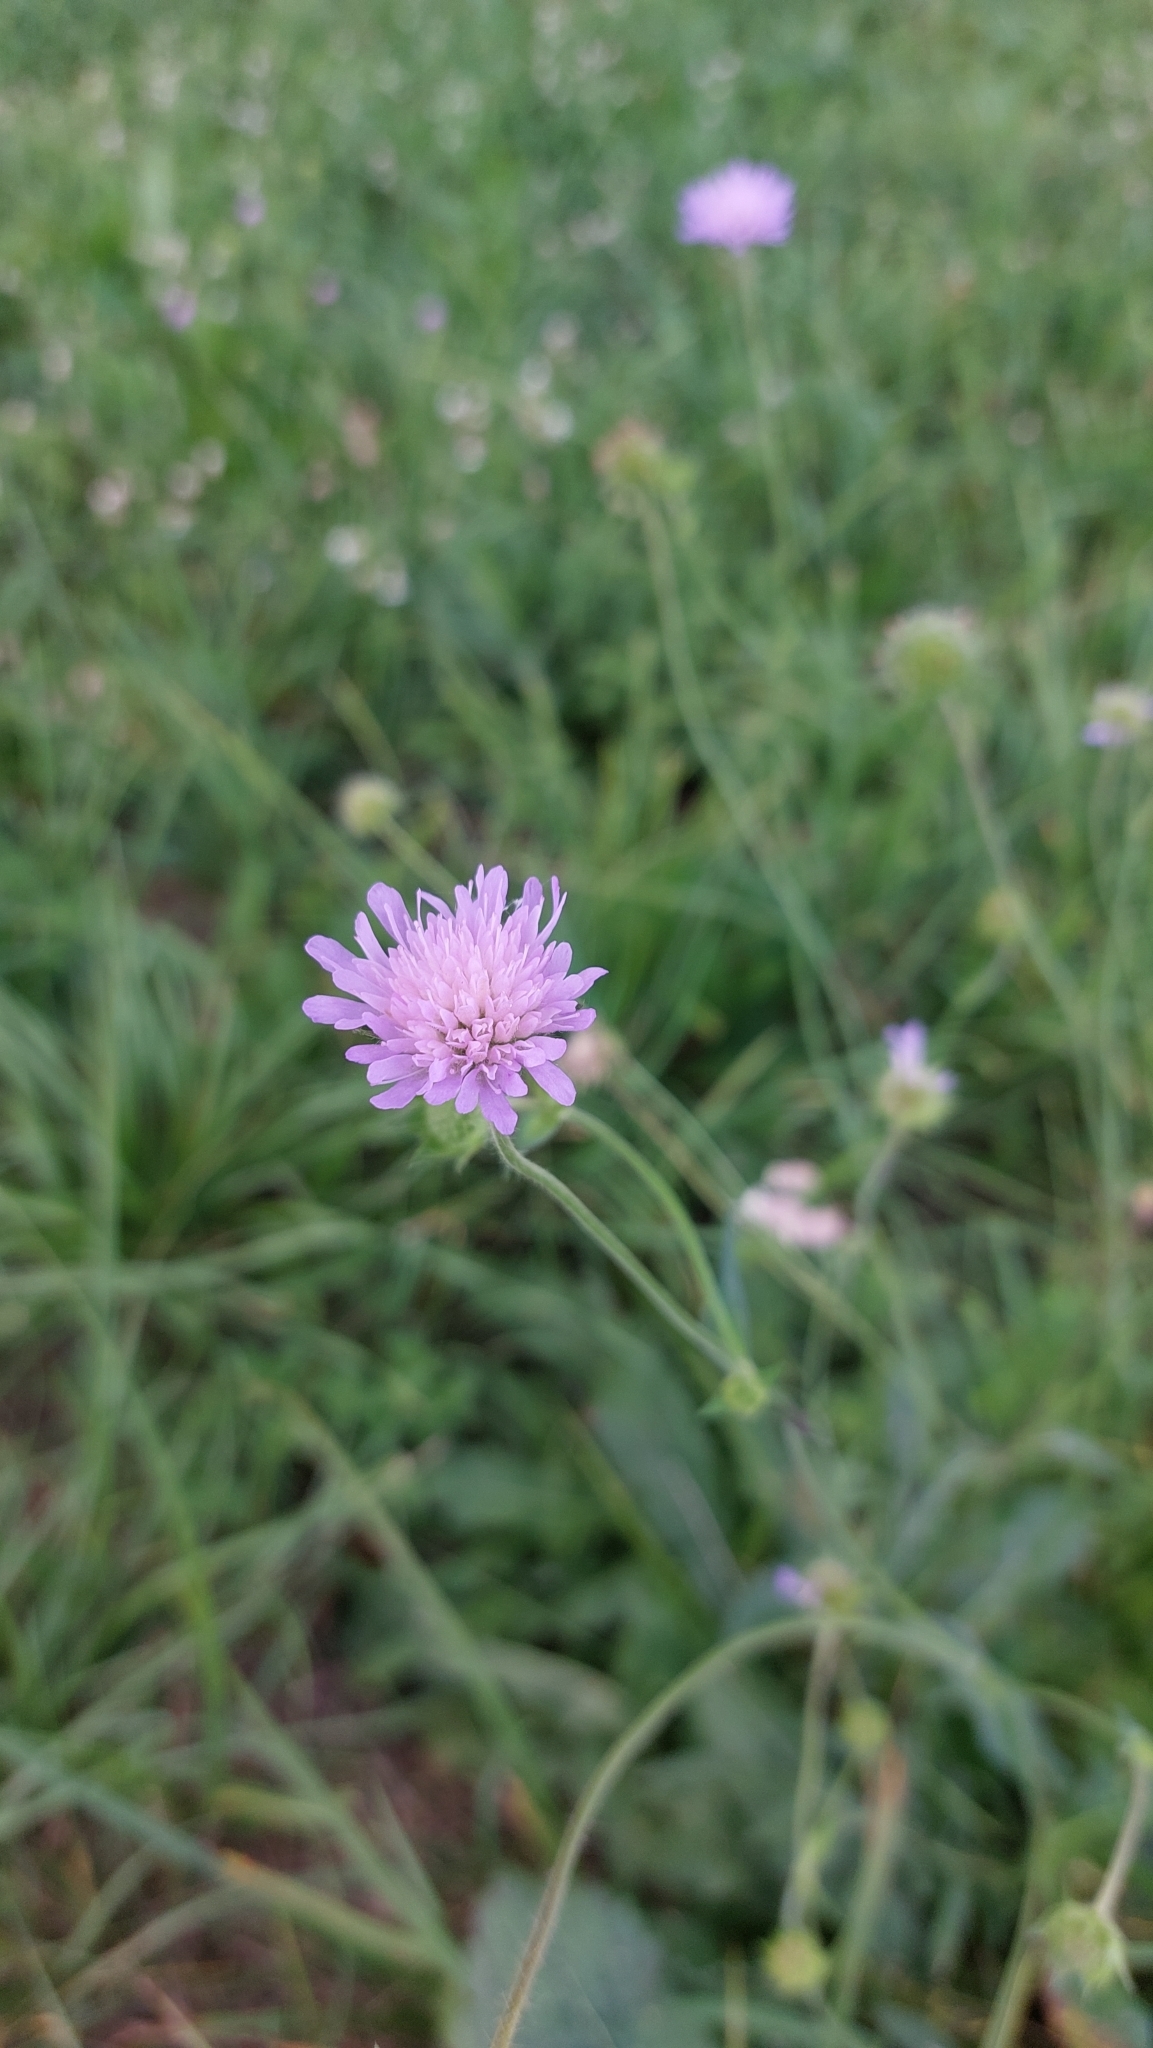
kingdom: Plantae
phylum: Tracheophyta
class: Magnoliopsida
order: Dipsacales
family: Caprifoliaceae
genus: Knautia
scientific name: Knautia arvensis
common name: Field scabiosa
